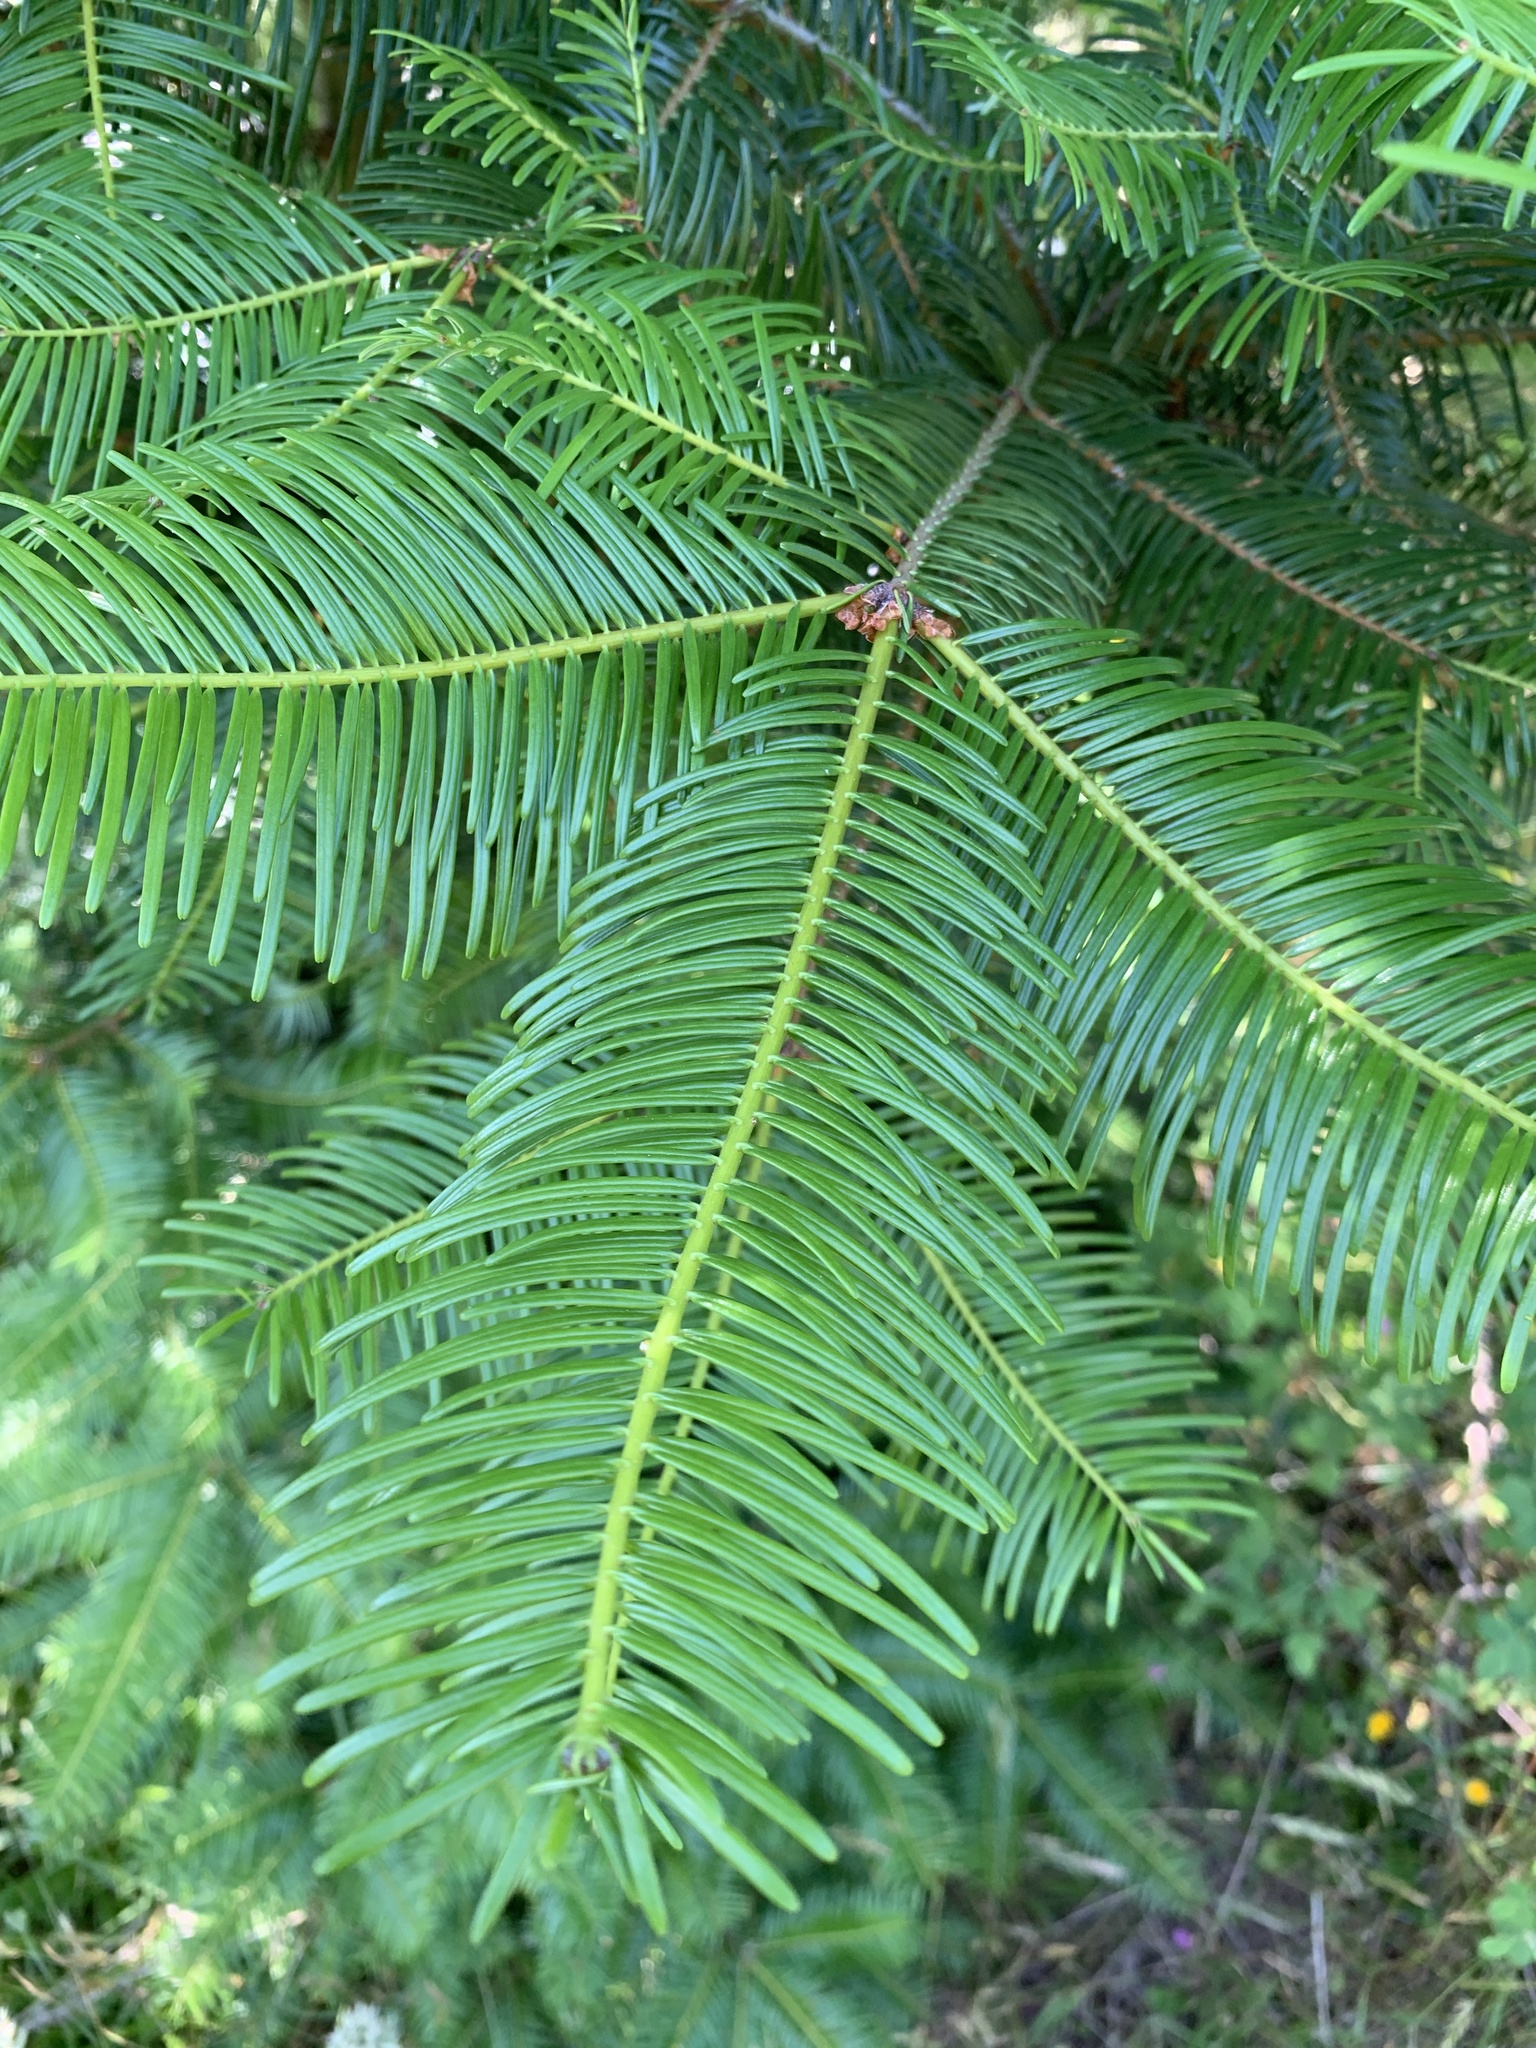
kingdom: Plantae
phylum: Tracheophyta
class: Pinopsida
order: Pinales
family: Pinaceae
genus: Abies
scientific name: Abies grandis
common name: Giant fir
